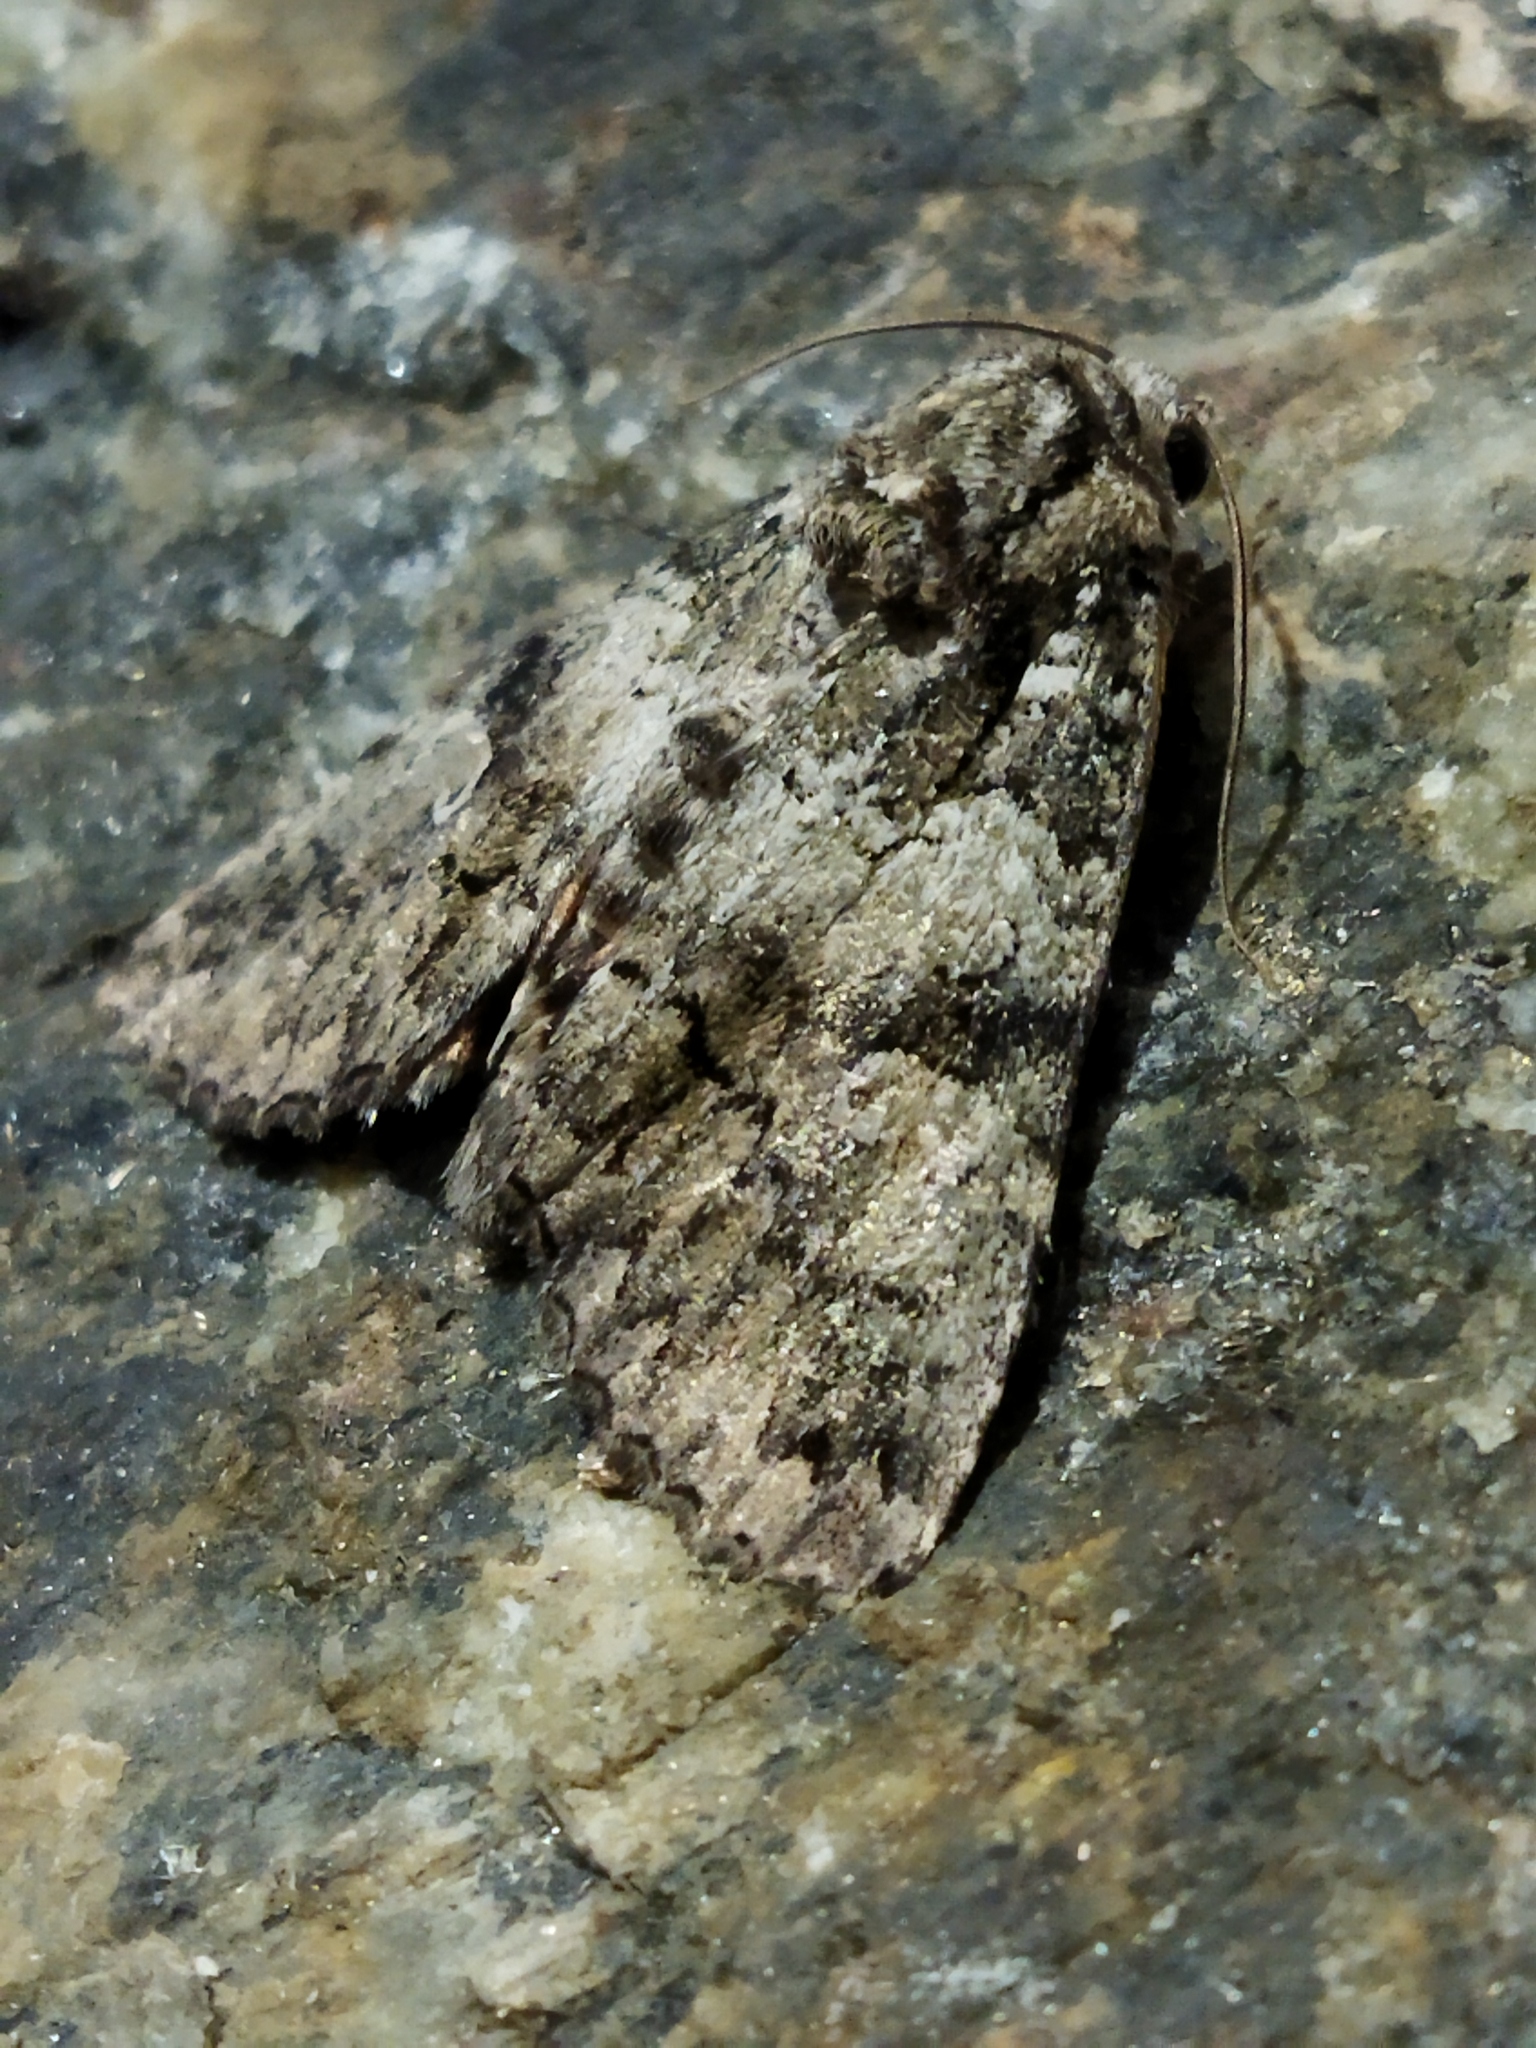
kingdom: Animalia
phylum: Arthropoda
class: Insecta
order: Lepidoptera
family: Noctuidae
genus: Olivenebula
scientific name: Olivenebula subsericata
